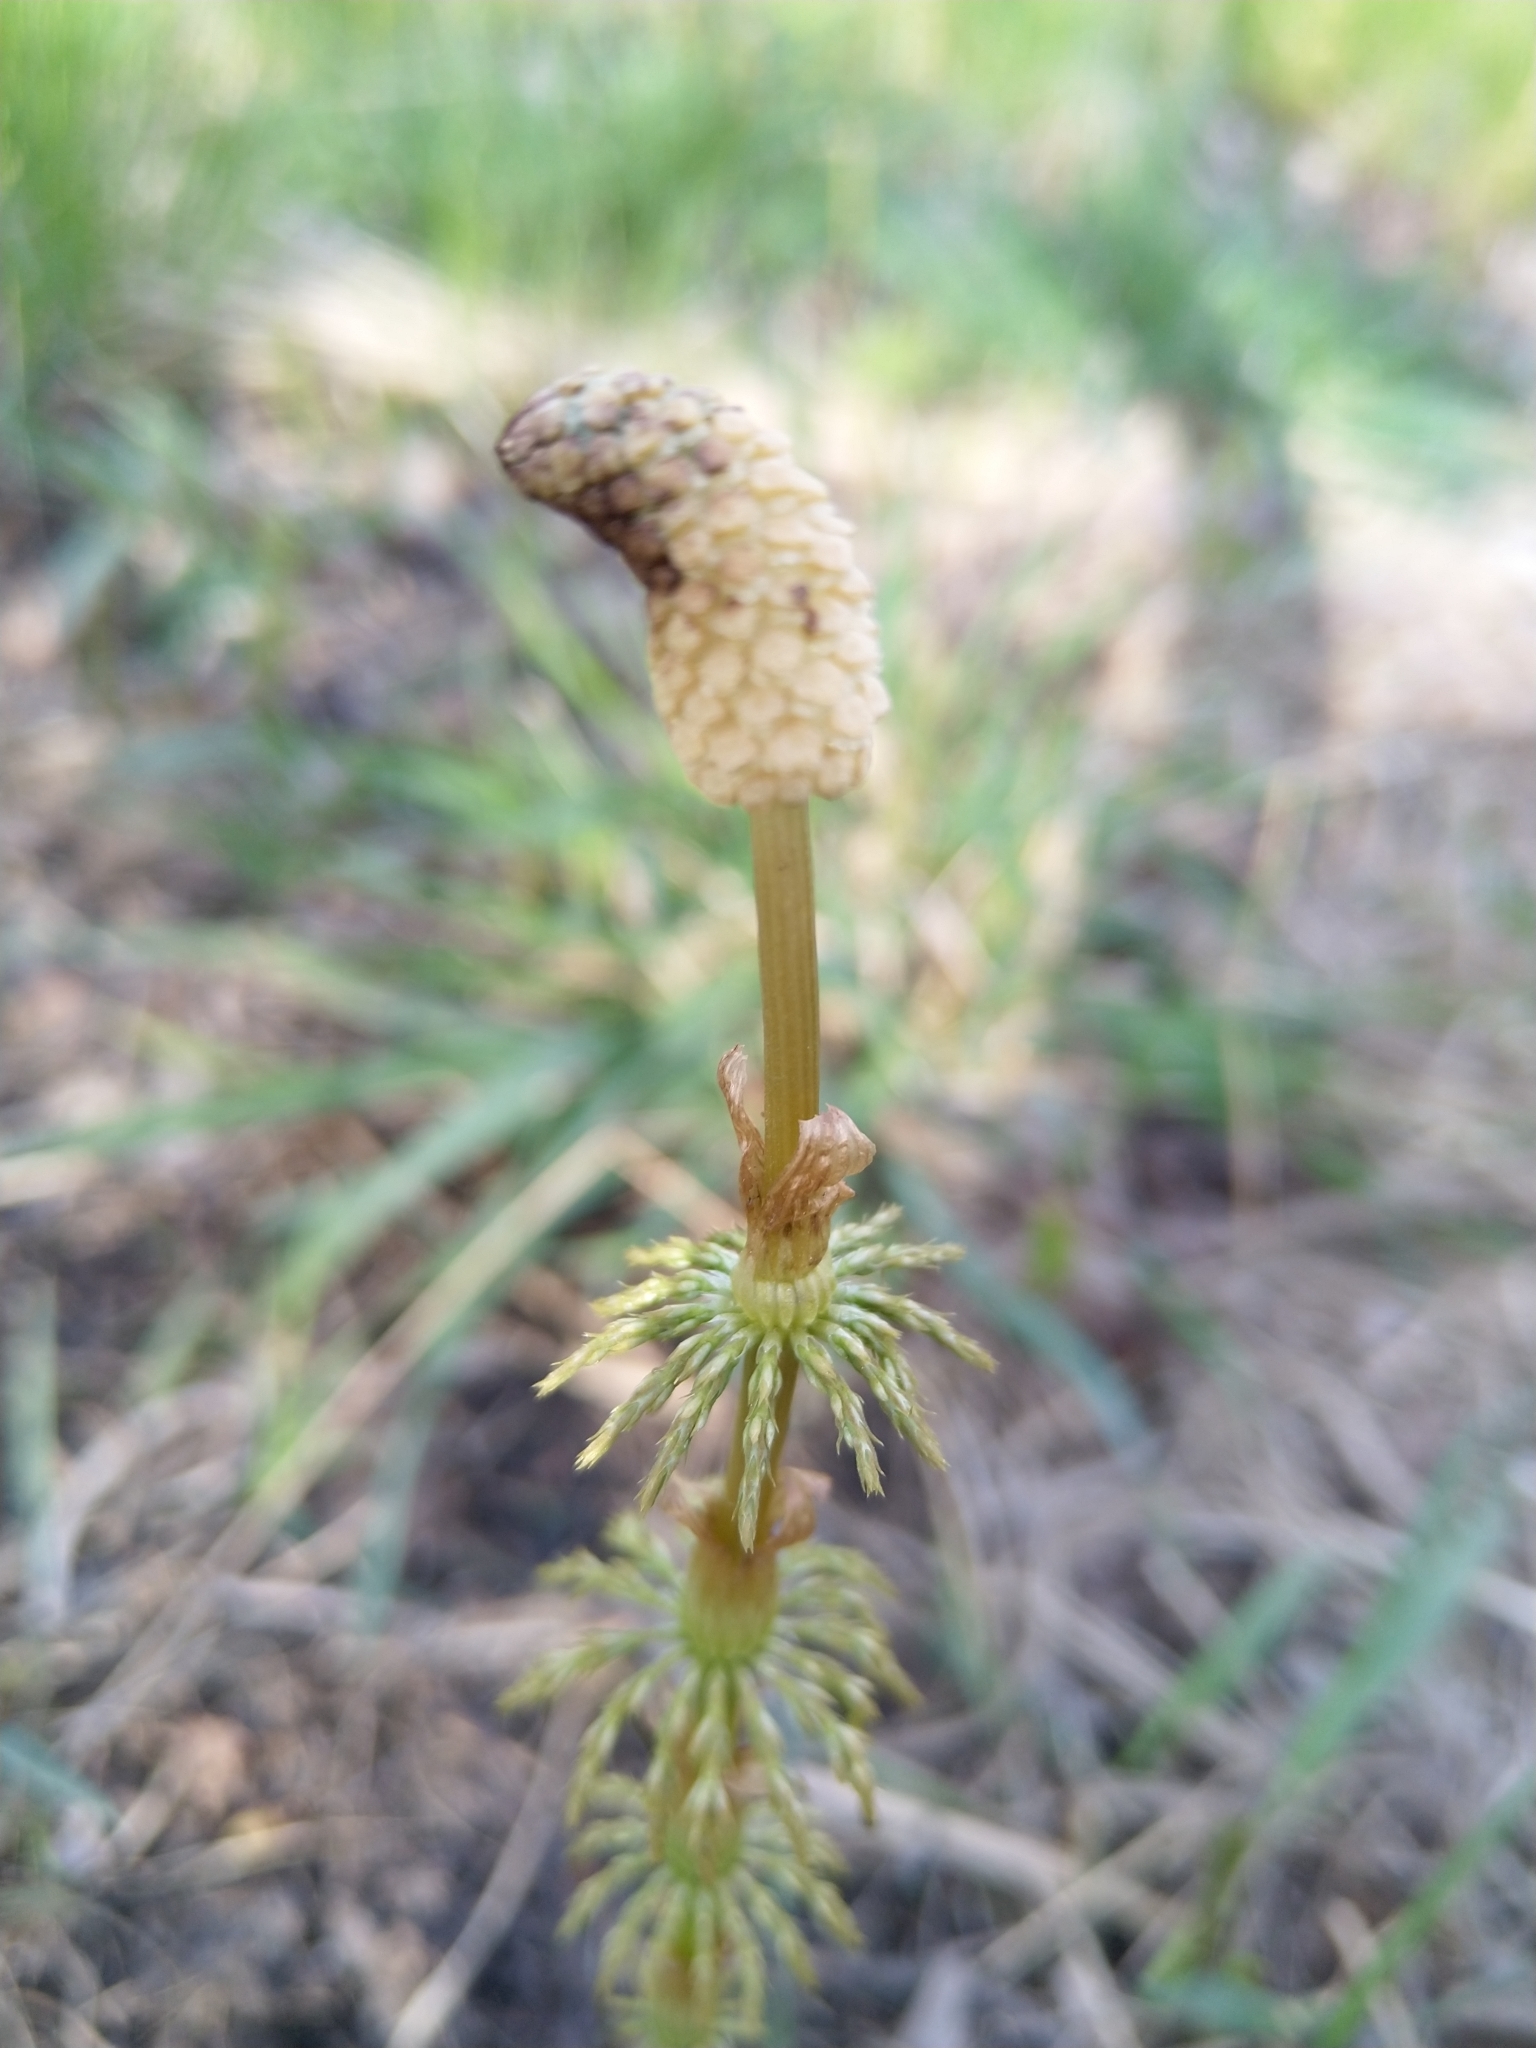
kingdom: Plantae
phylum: Tracheophyta
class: Polypodiopsida
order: Equisetales
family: Equisetaceae
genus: Equisetum
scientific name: Equisetum sylvaticum
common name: Wood horsetail
